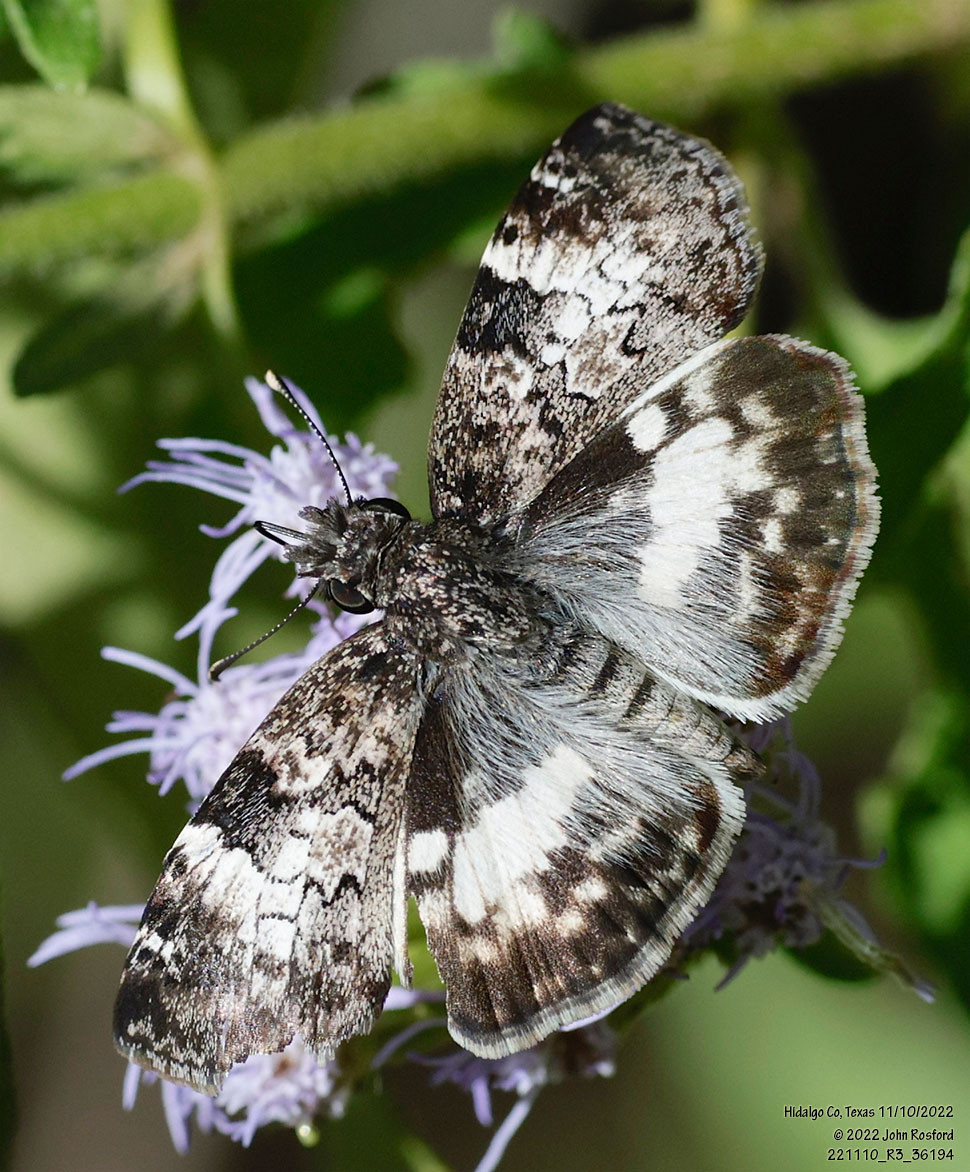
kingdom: Animalia
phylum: Arthropoda
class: Insecta
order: Lepidoptera
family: Hesperiidae
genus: Chiothion
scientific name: Chiothion georgina
